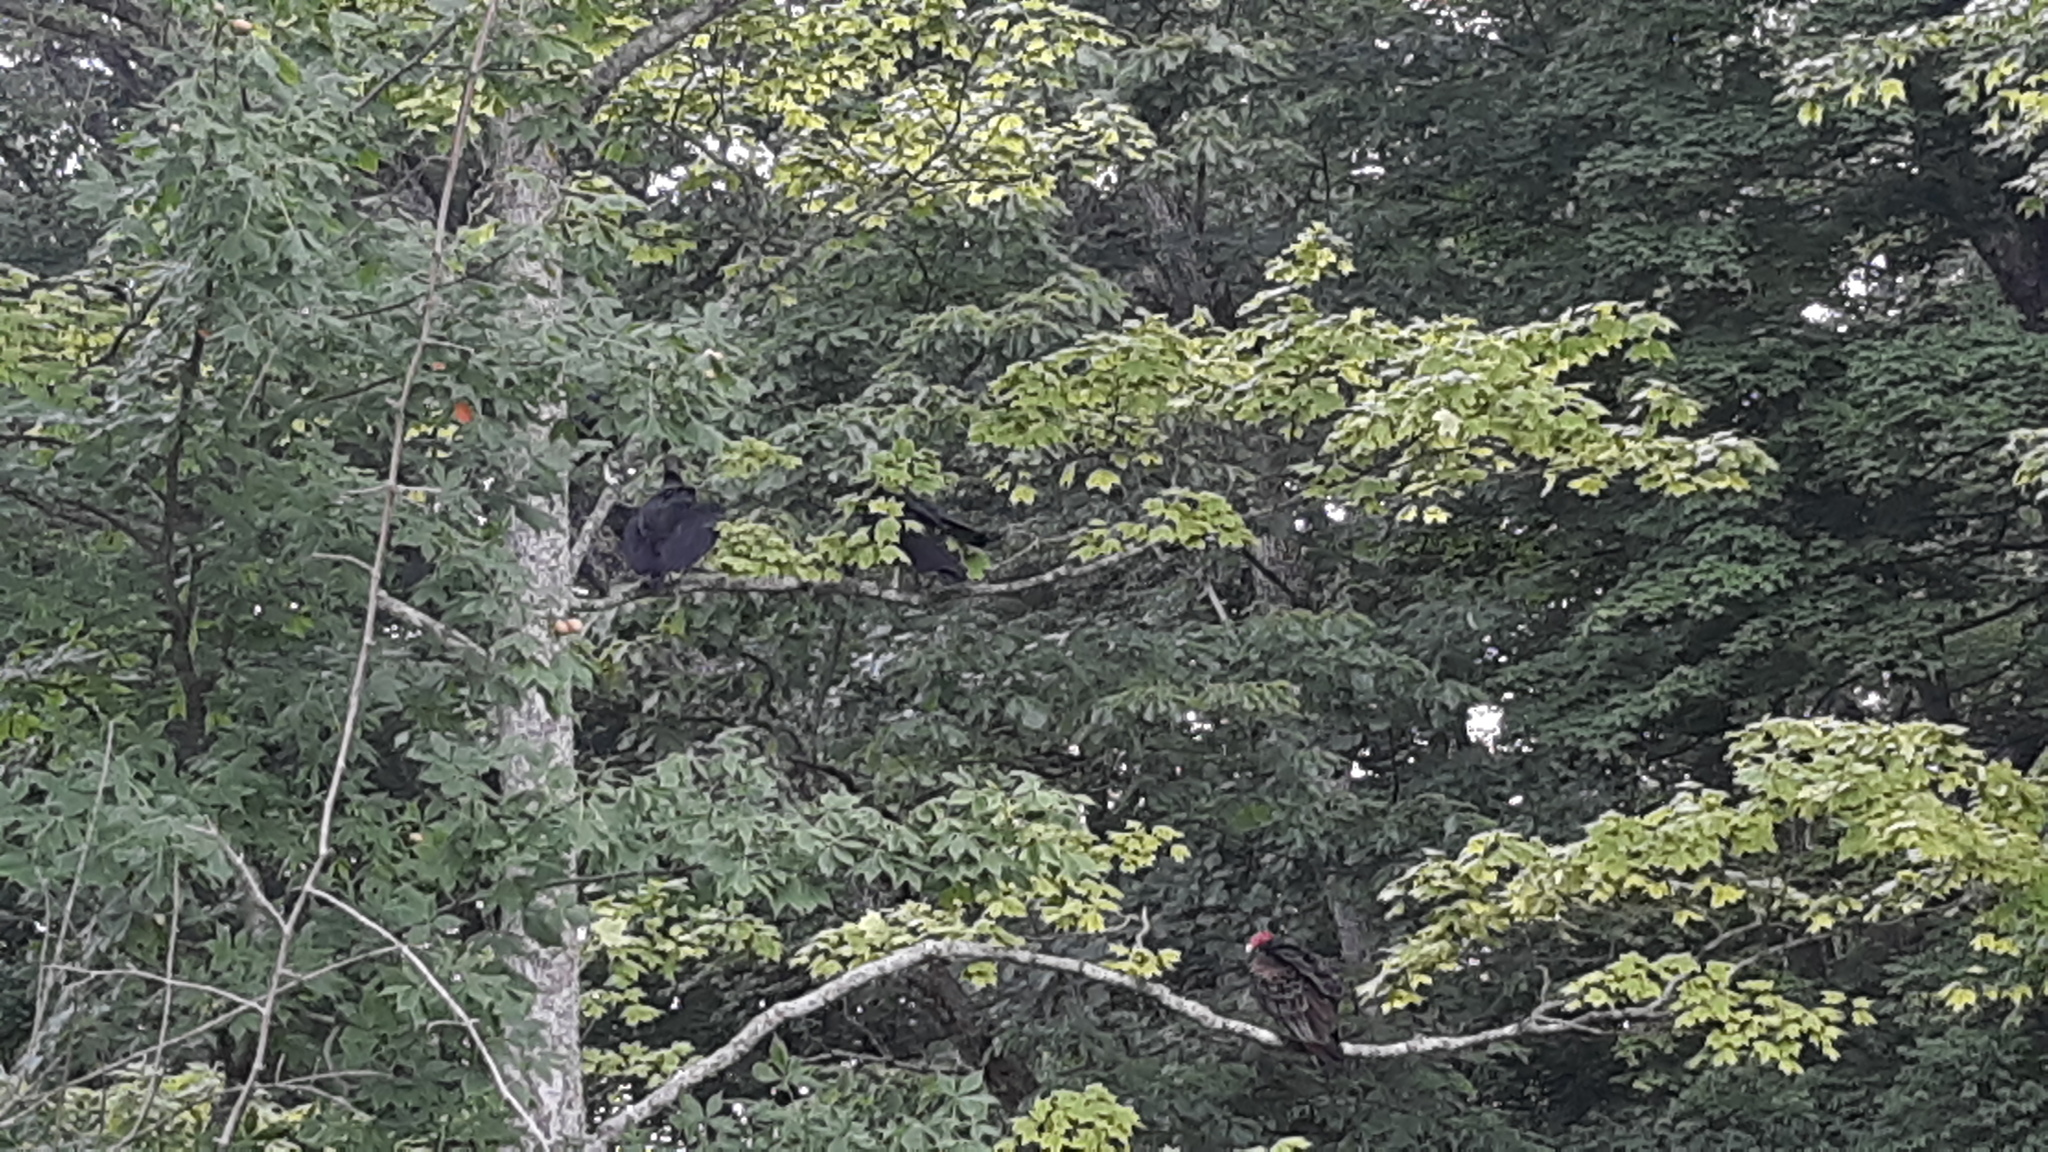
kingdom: Animalia
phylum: Chordata
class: Aves
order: Accipitriformes
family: Cathartidae
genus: Coragyps
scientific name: Coragyps atratus
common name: Black vulture
